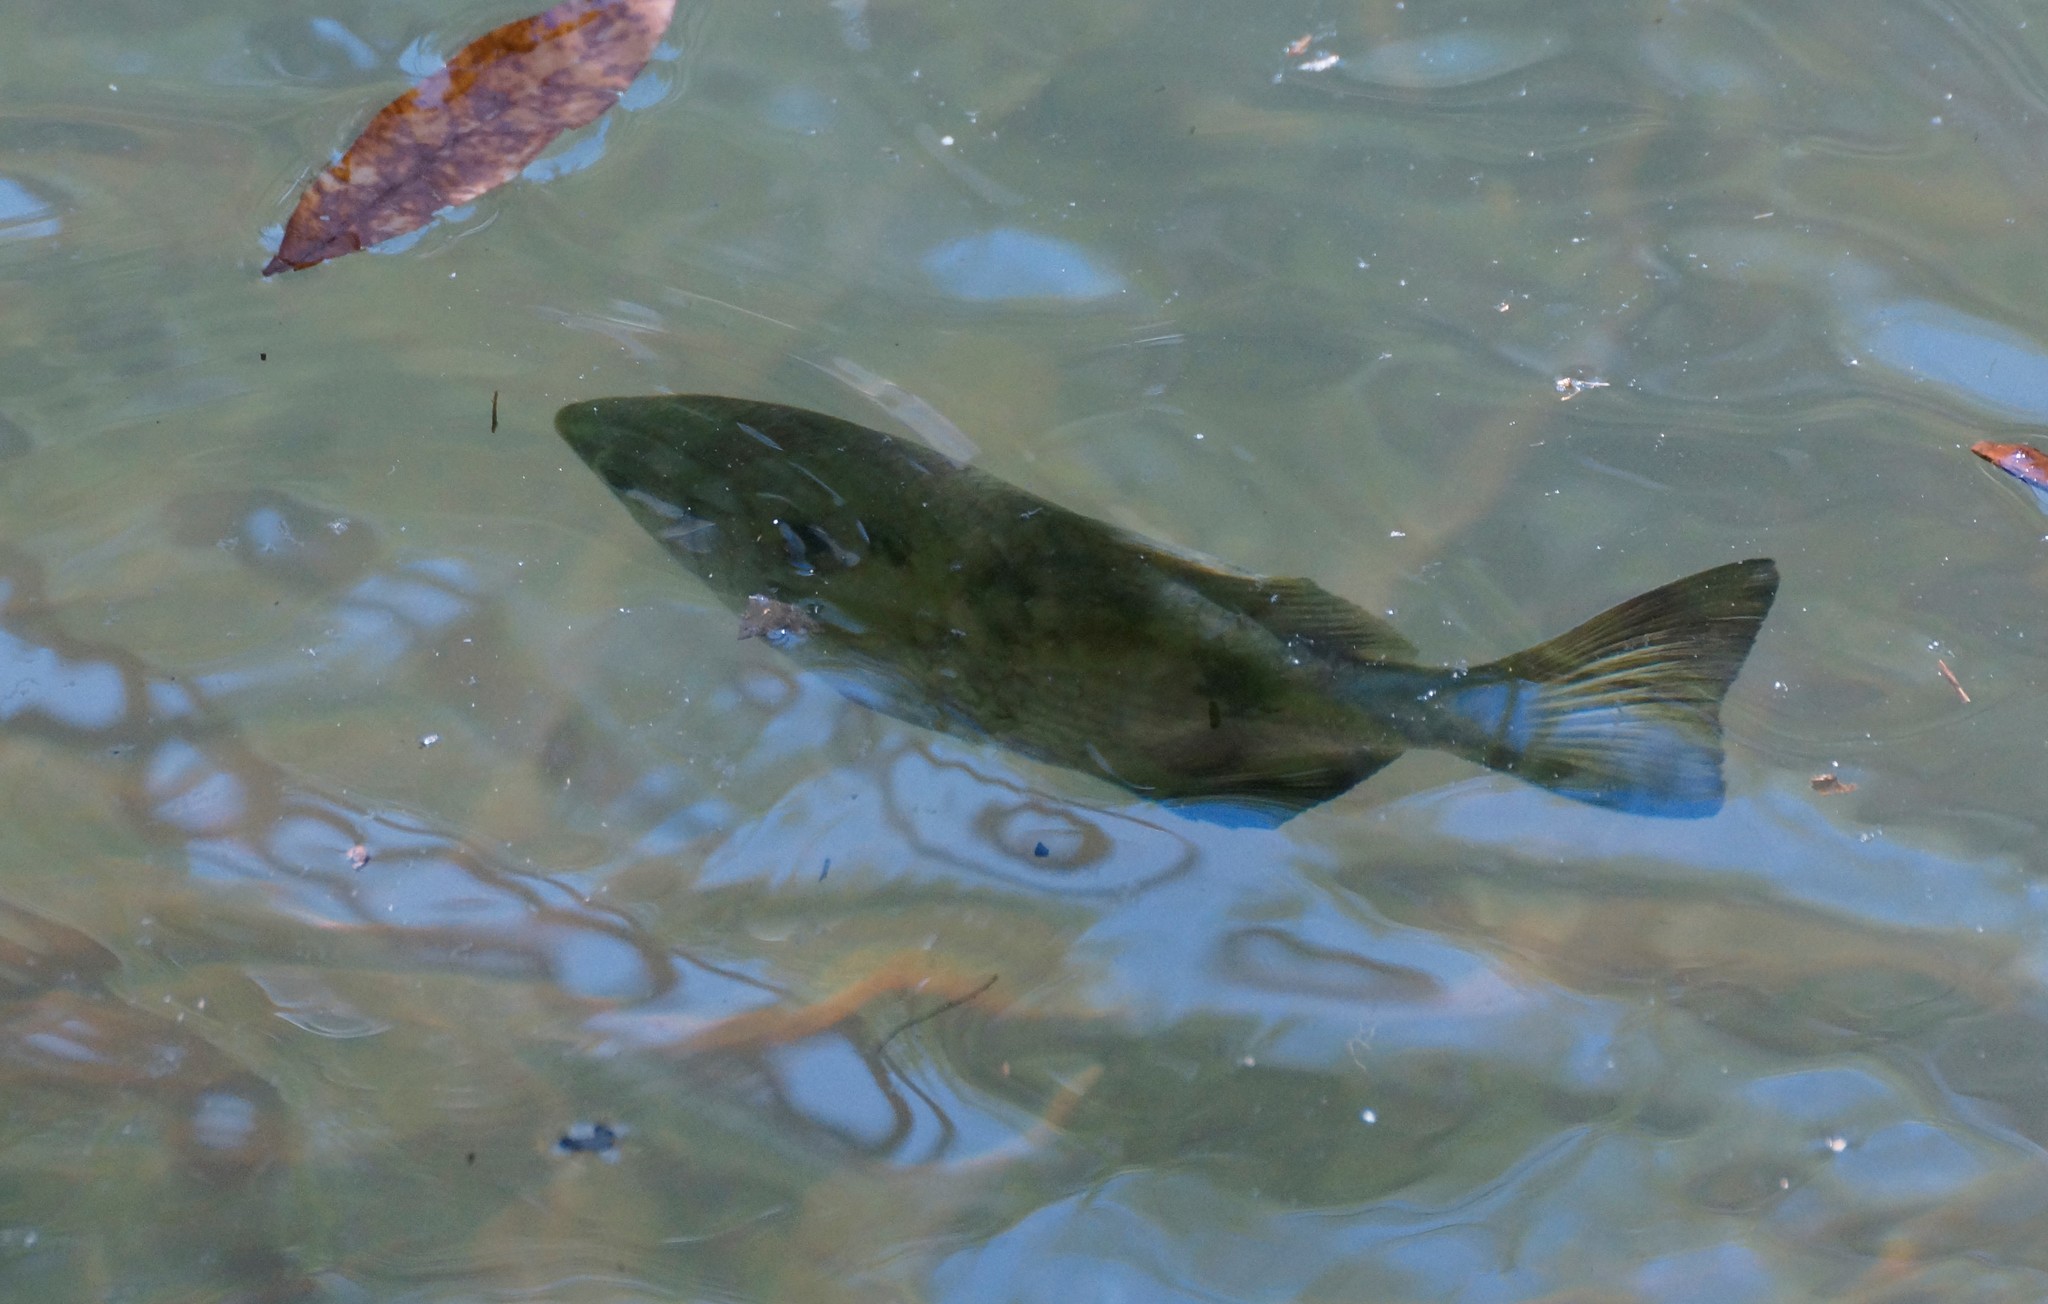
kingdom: Animalia
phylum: Chordata
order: Perciformes
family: Toxotidae
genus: Toxotes
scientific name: Toxotes chatareus
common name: Spotted archerfish
